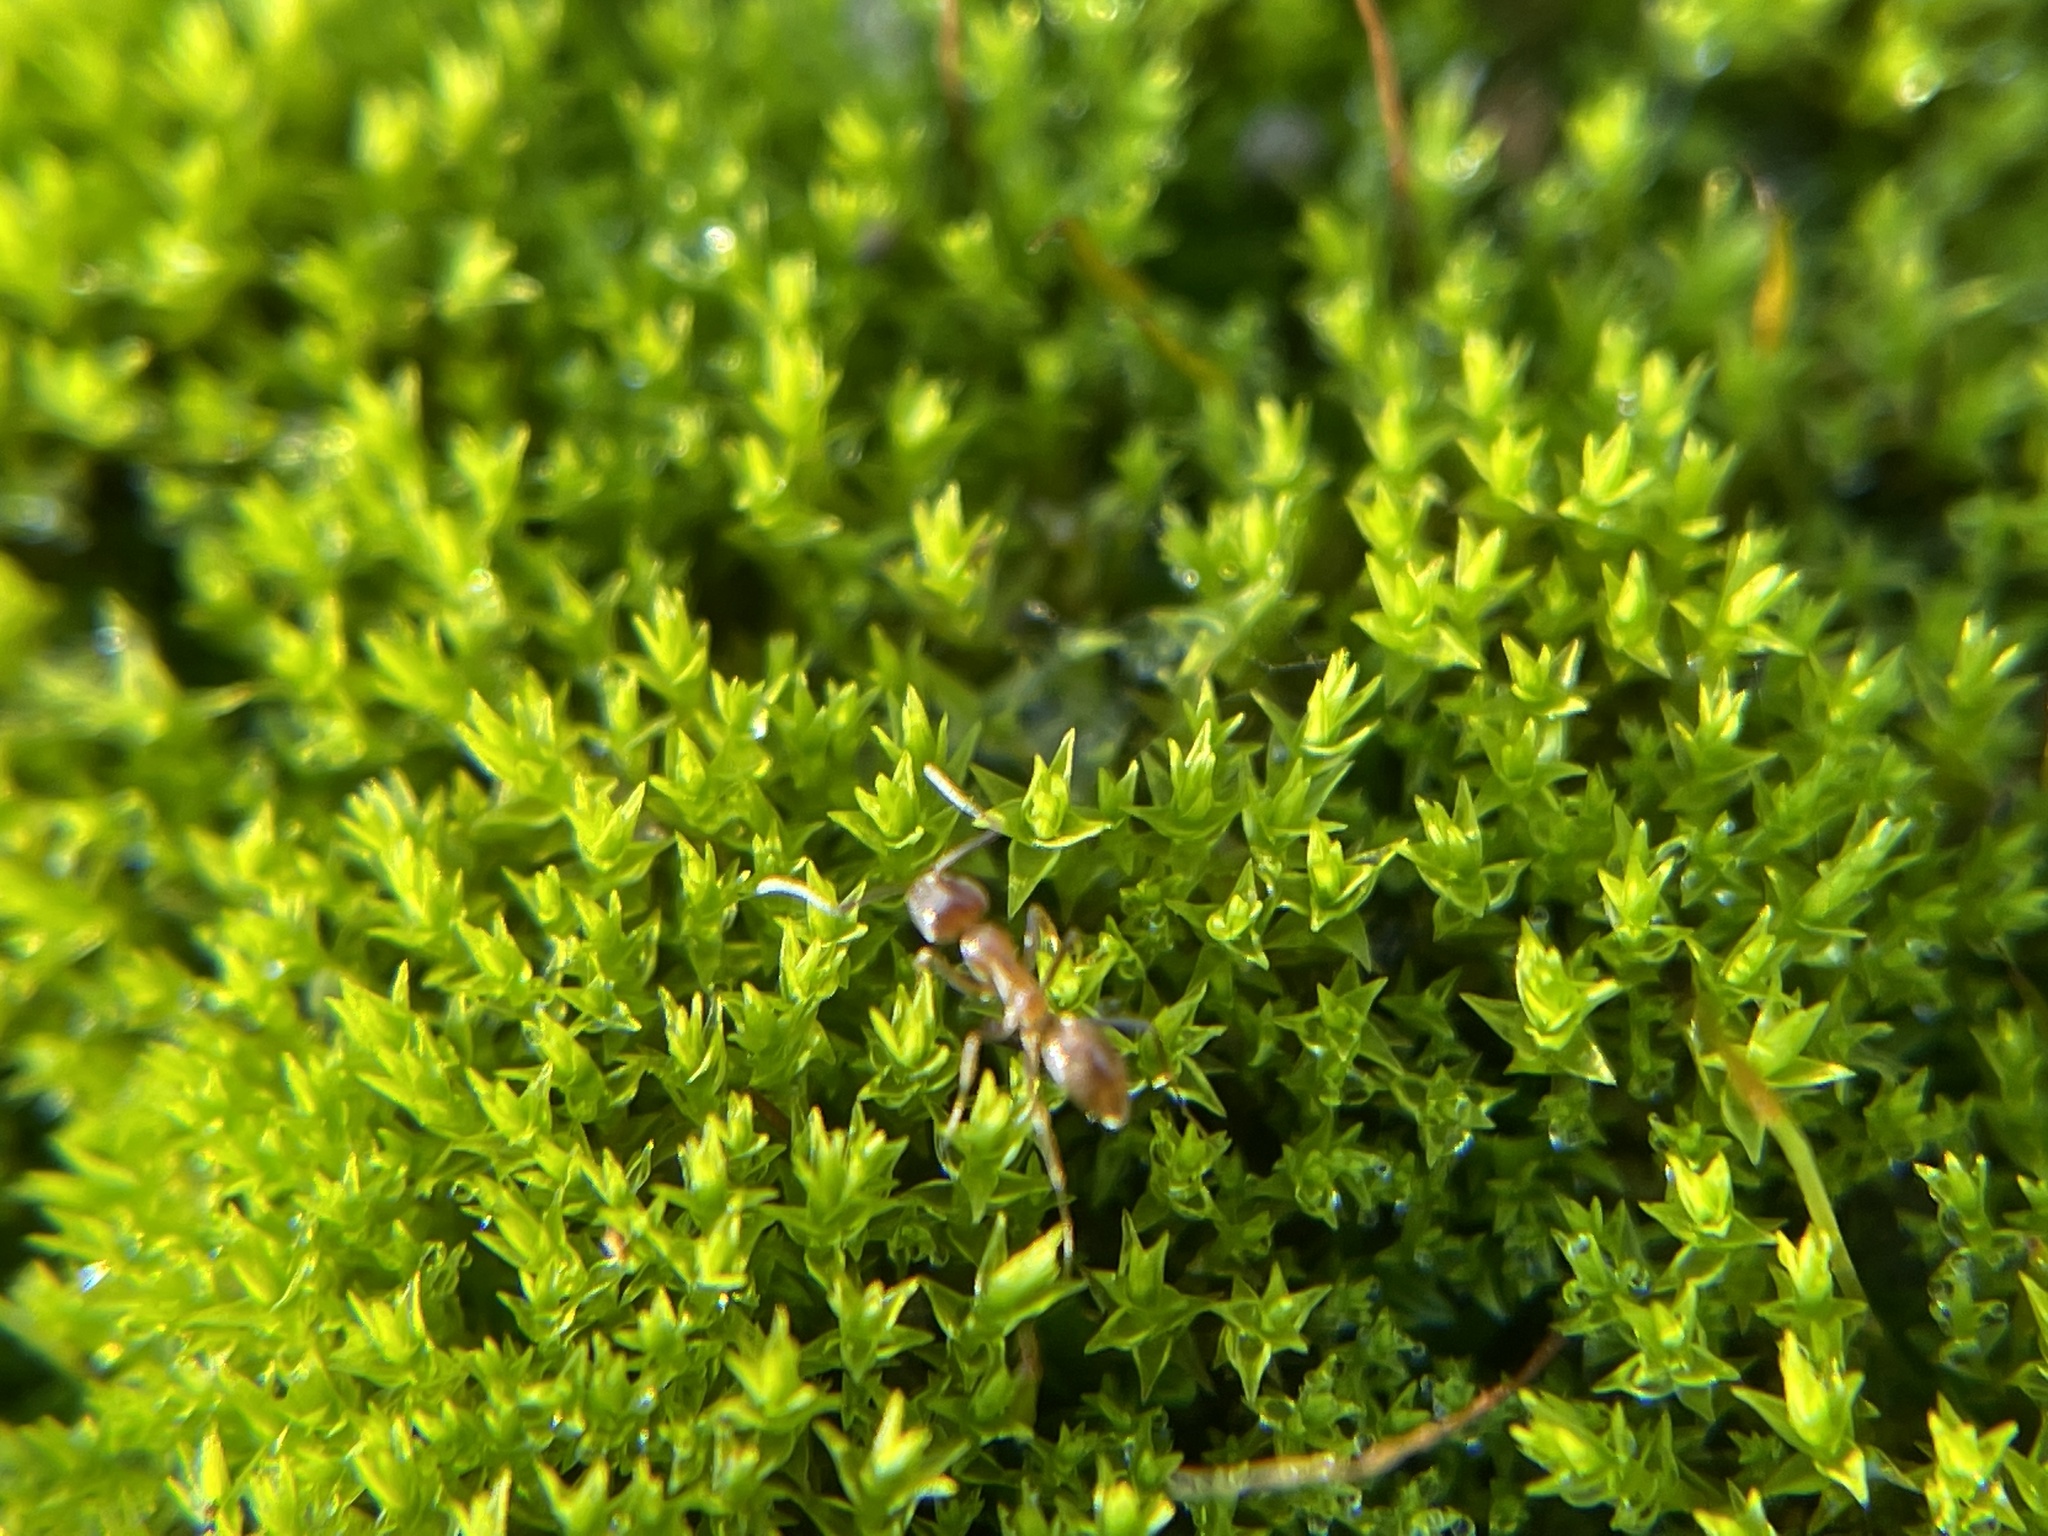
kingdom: Animalia
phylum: Arthropoda
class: Insecta
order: Hymenoptera
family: Formicidae
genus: Linepithema
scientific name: Linepithema humile
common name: Argentine ant
